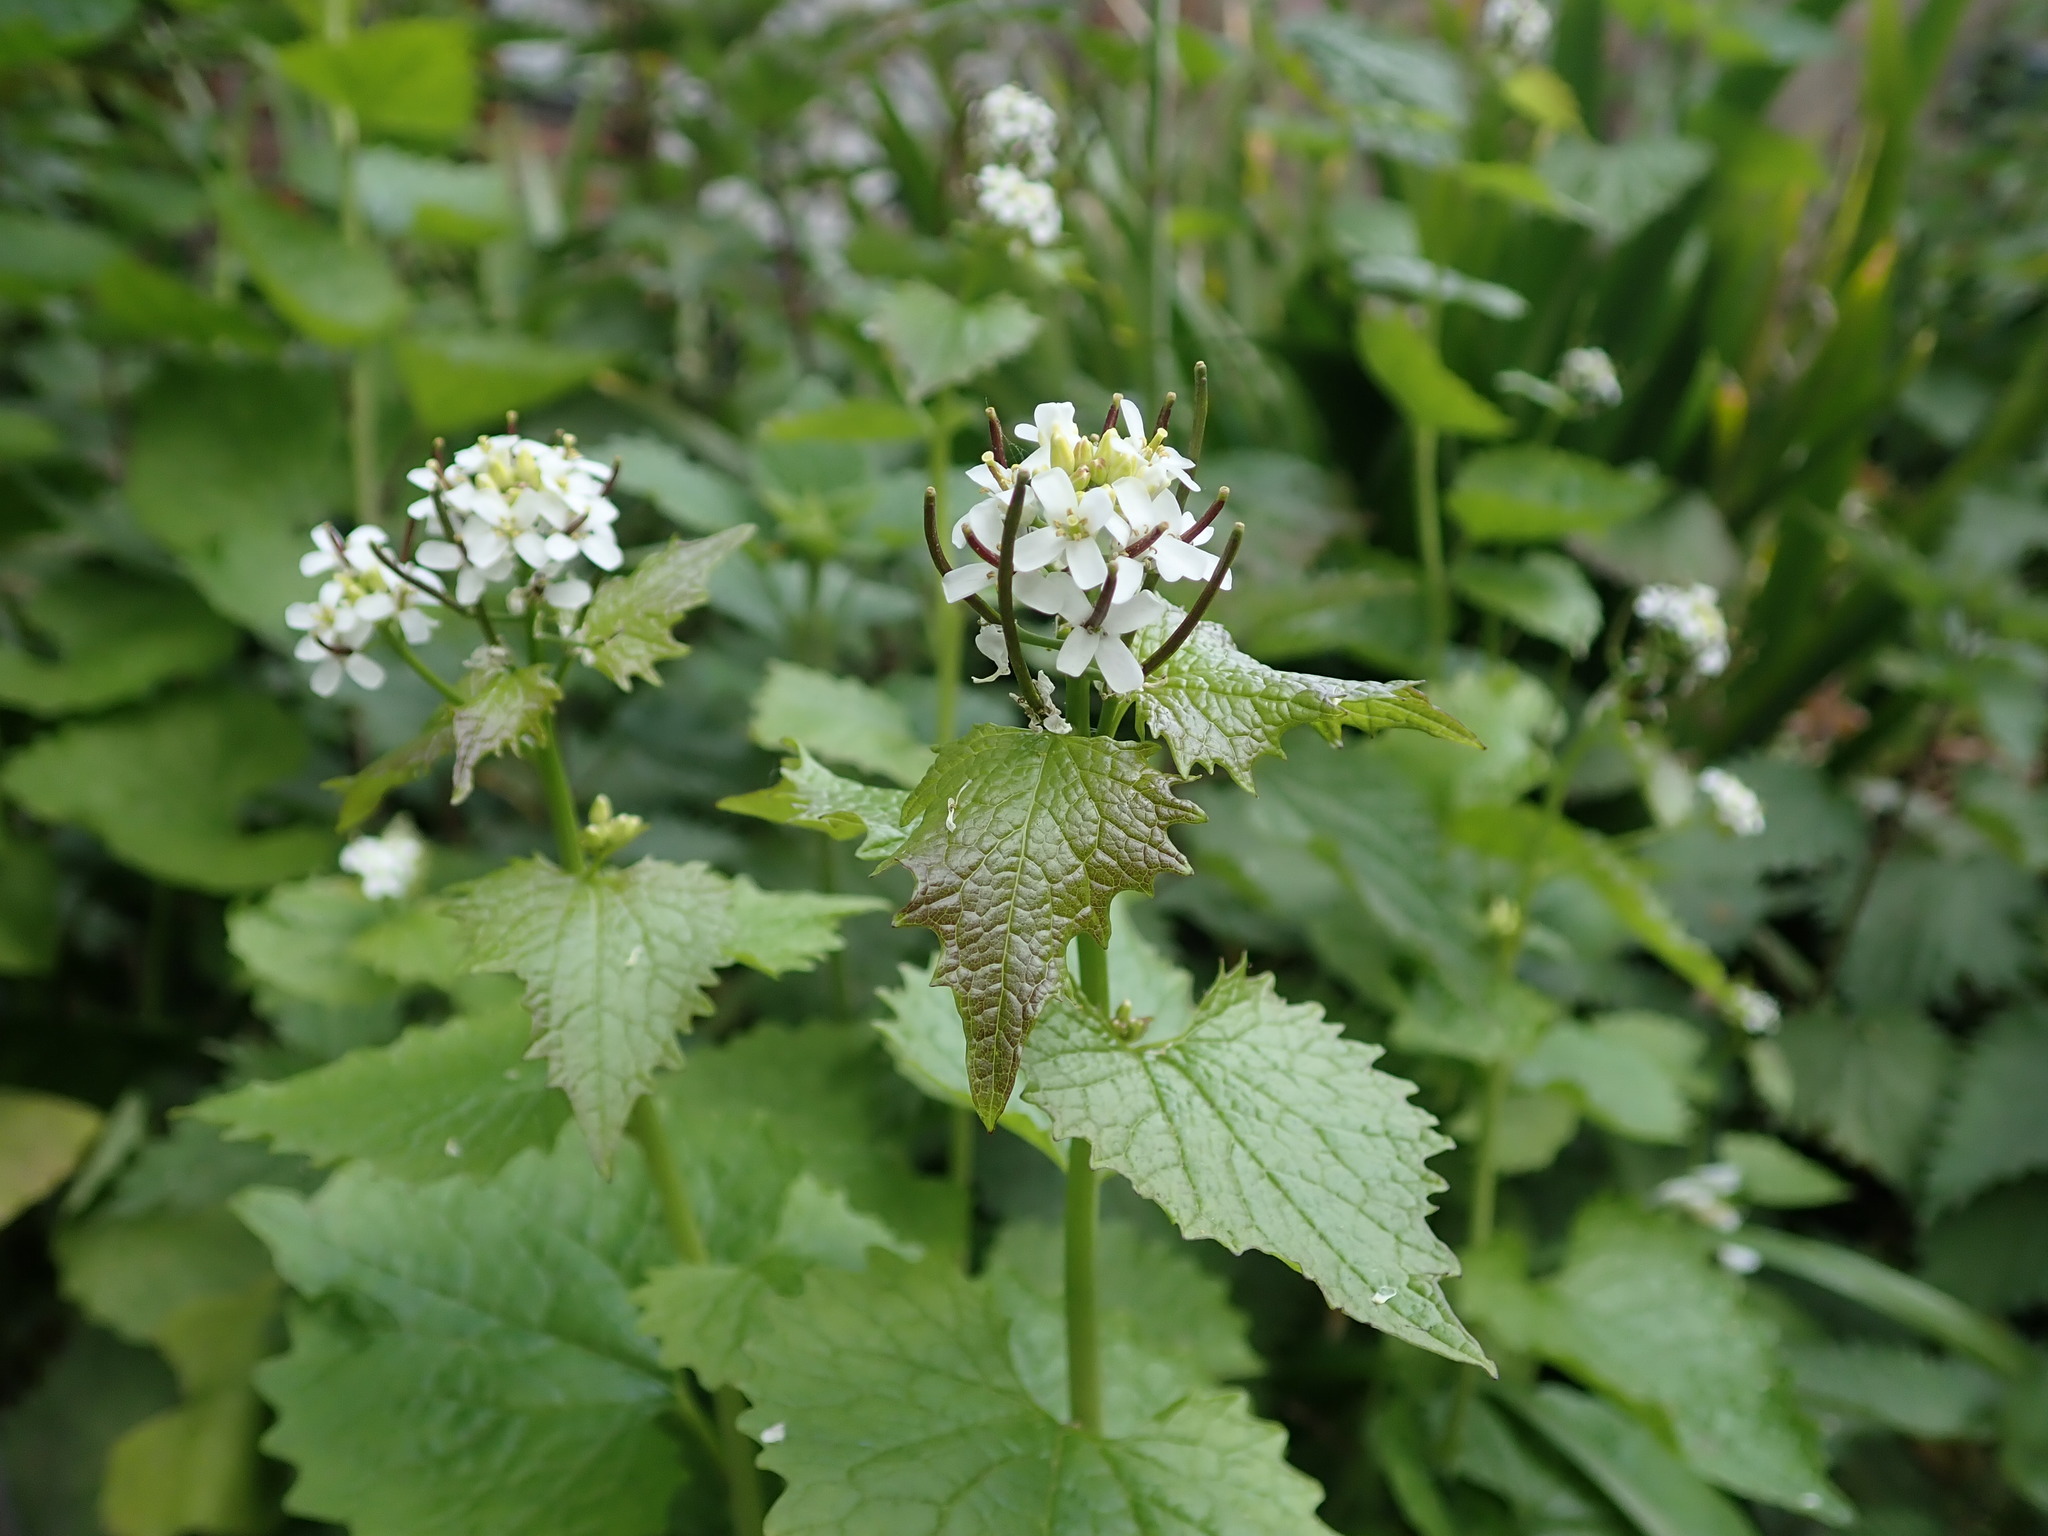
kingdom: Plantae
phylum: Tracheophyta
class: Magnoliopsida
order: Brassicales
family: Brassicaceae
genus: Alliaria
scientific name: Alliaria petiolata
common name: Garlic mustard
